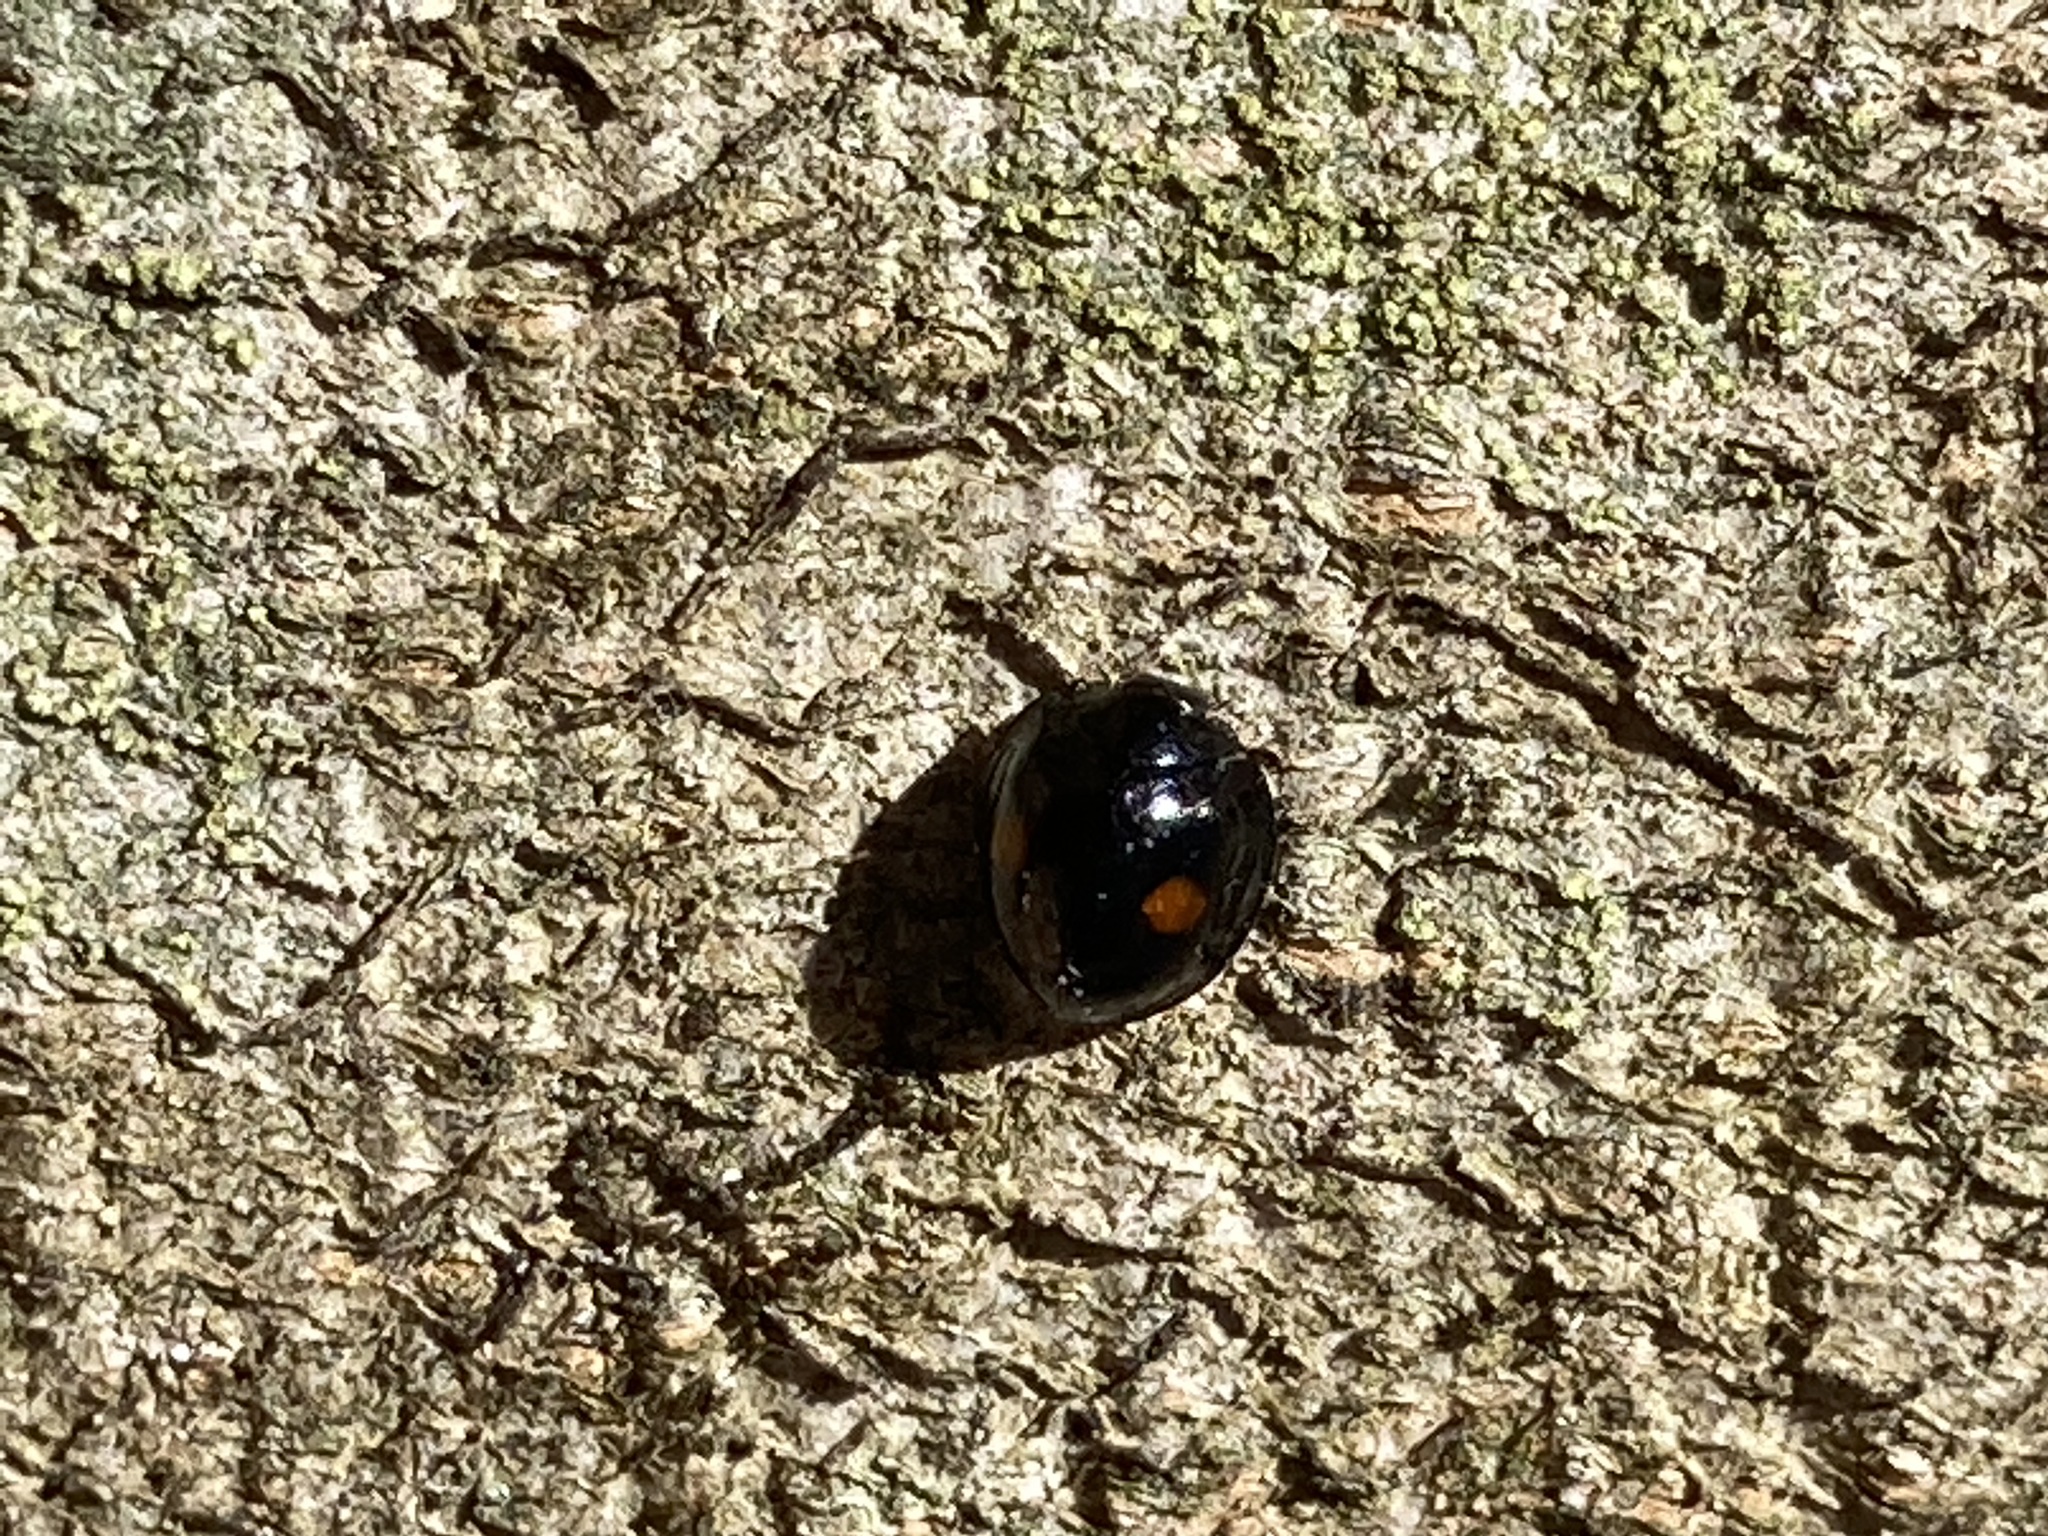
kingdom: Animalia
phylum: Arthropoda
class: Insecta
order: Coleoptera
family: Coccinellidae
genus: Chilocorus
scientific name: Chilocorus stigma
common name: Twicestabbed lady beetle
